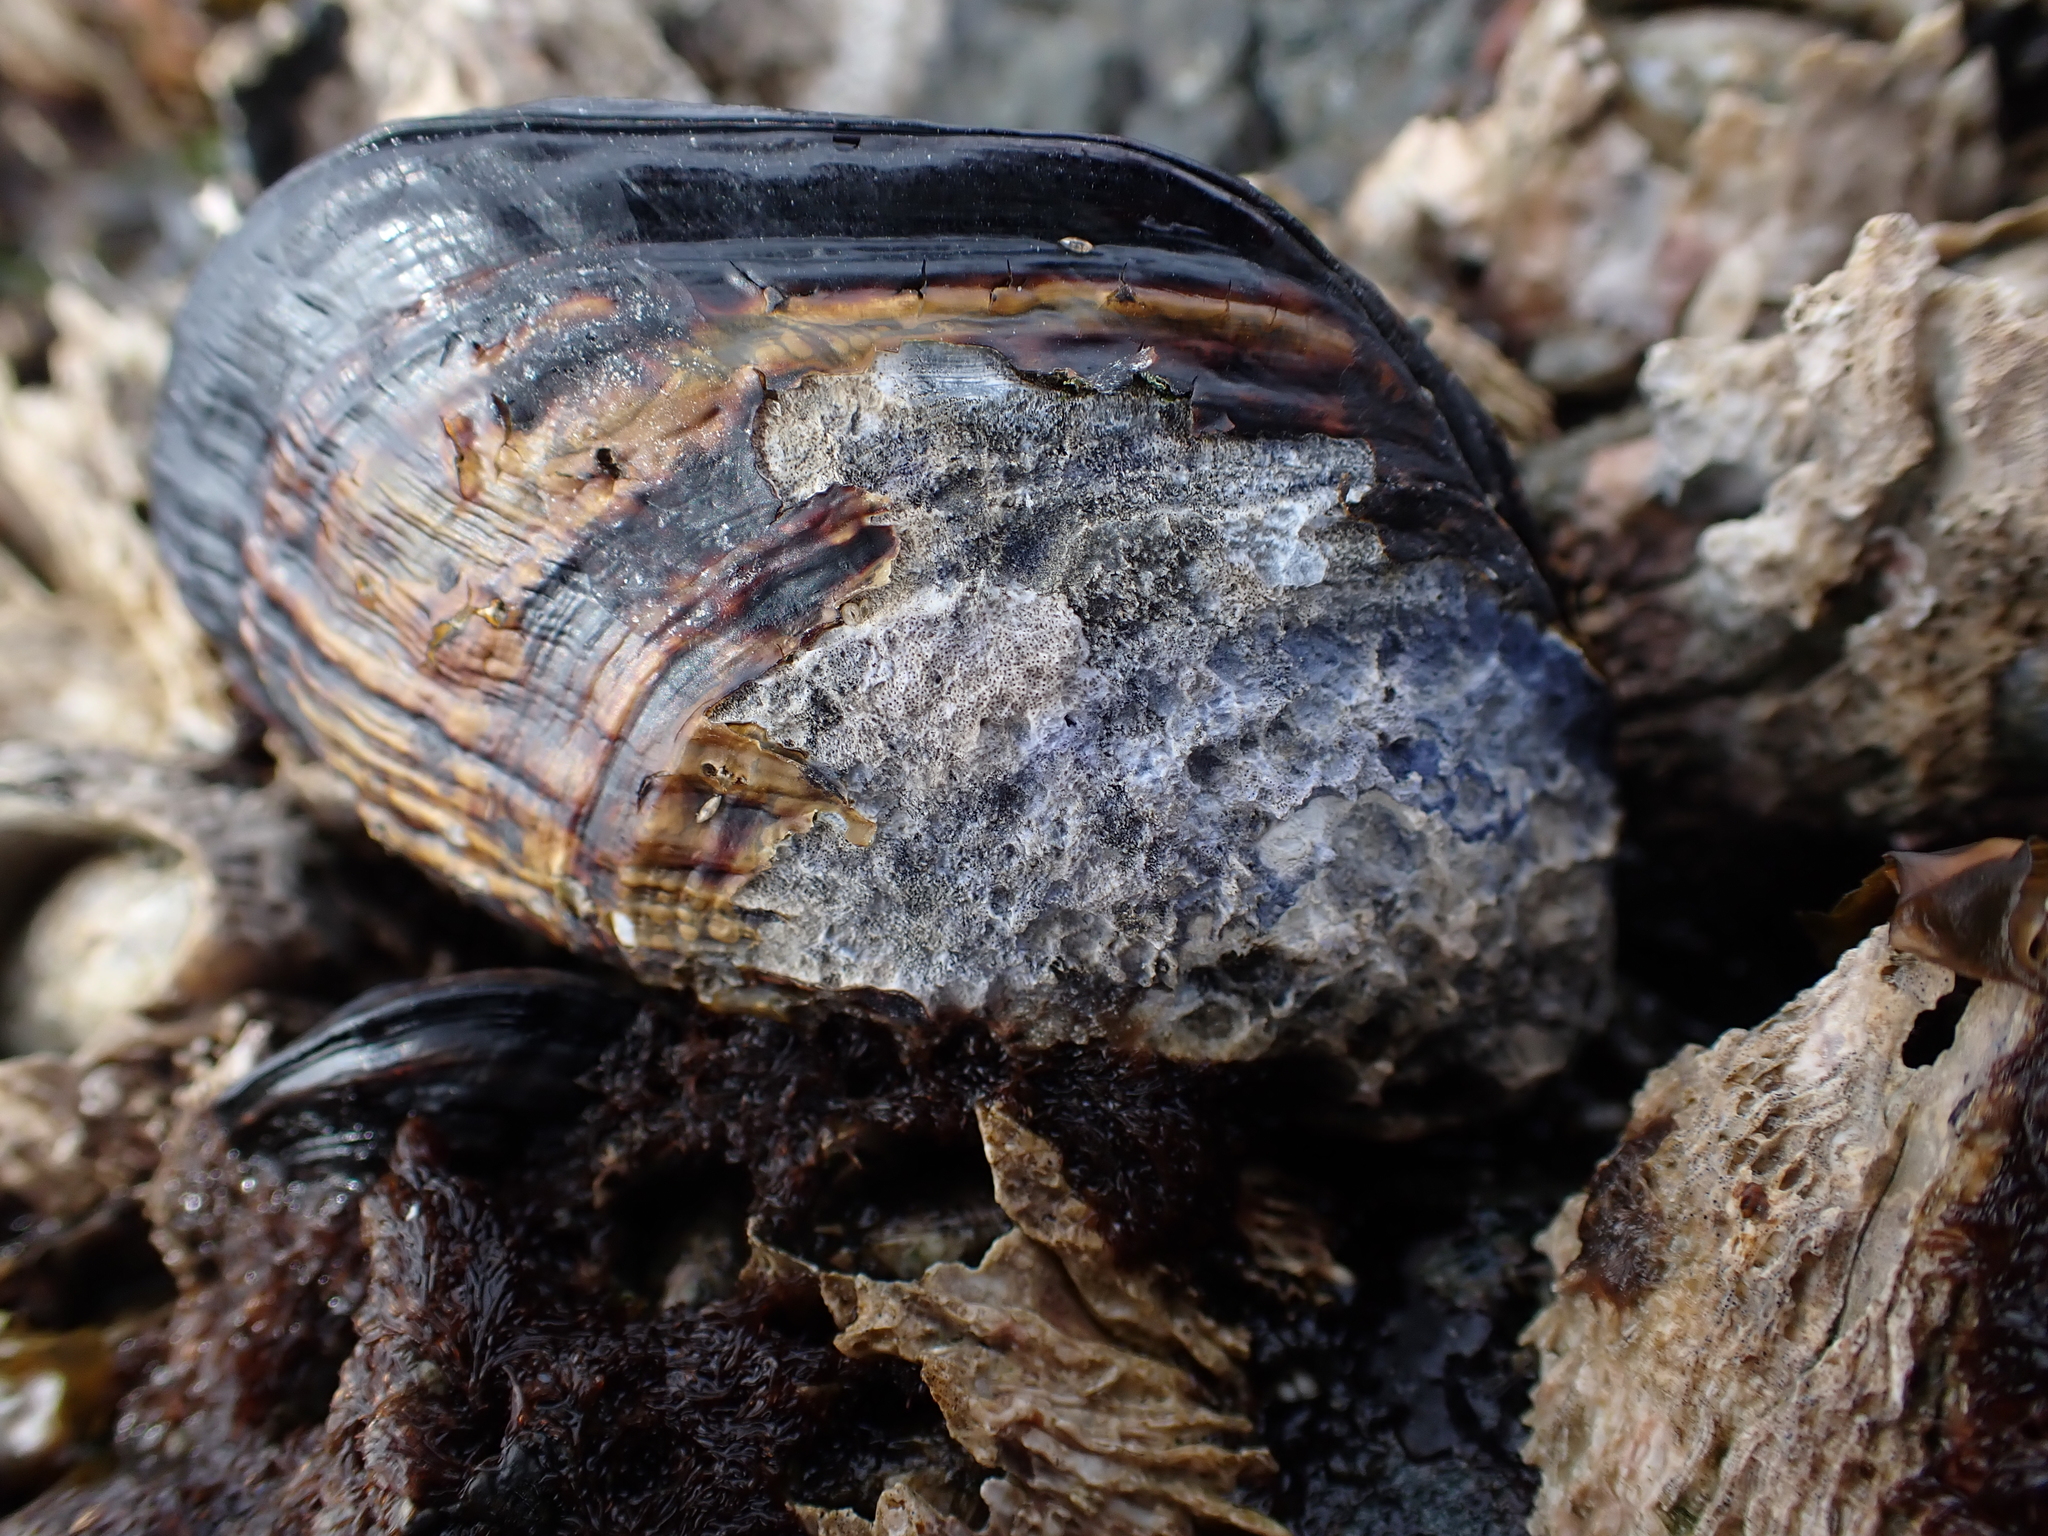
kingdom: Animalia
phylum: Mollusca
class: Bivalvia
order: Mytilida
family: Mytilidae
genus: Mytilus
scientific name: Mytilus californianus
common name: California mussel
